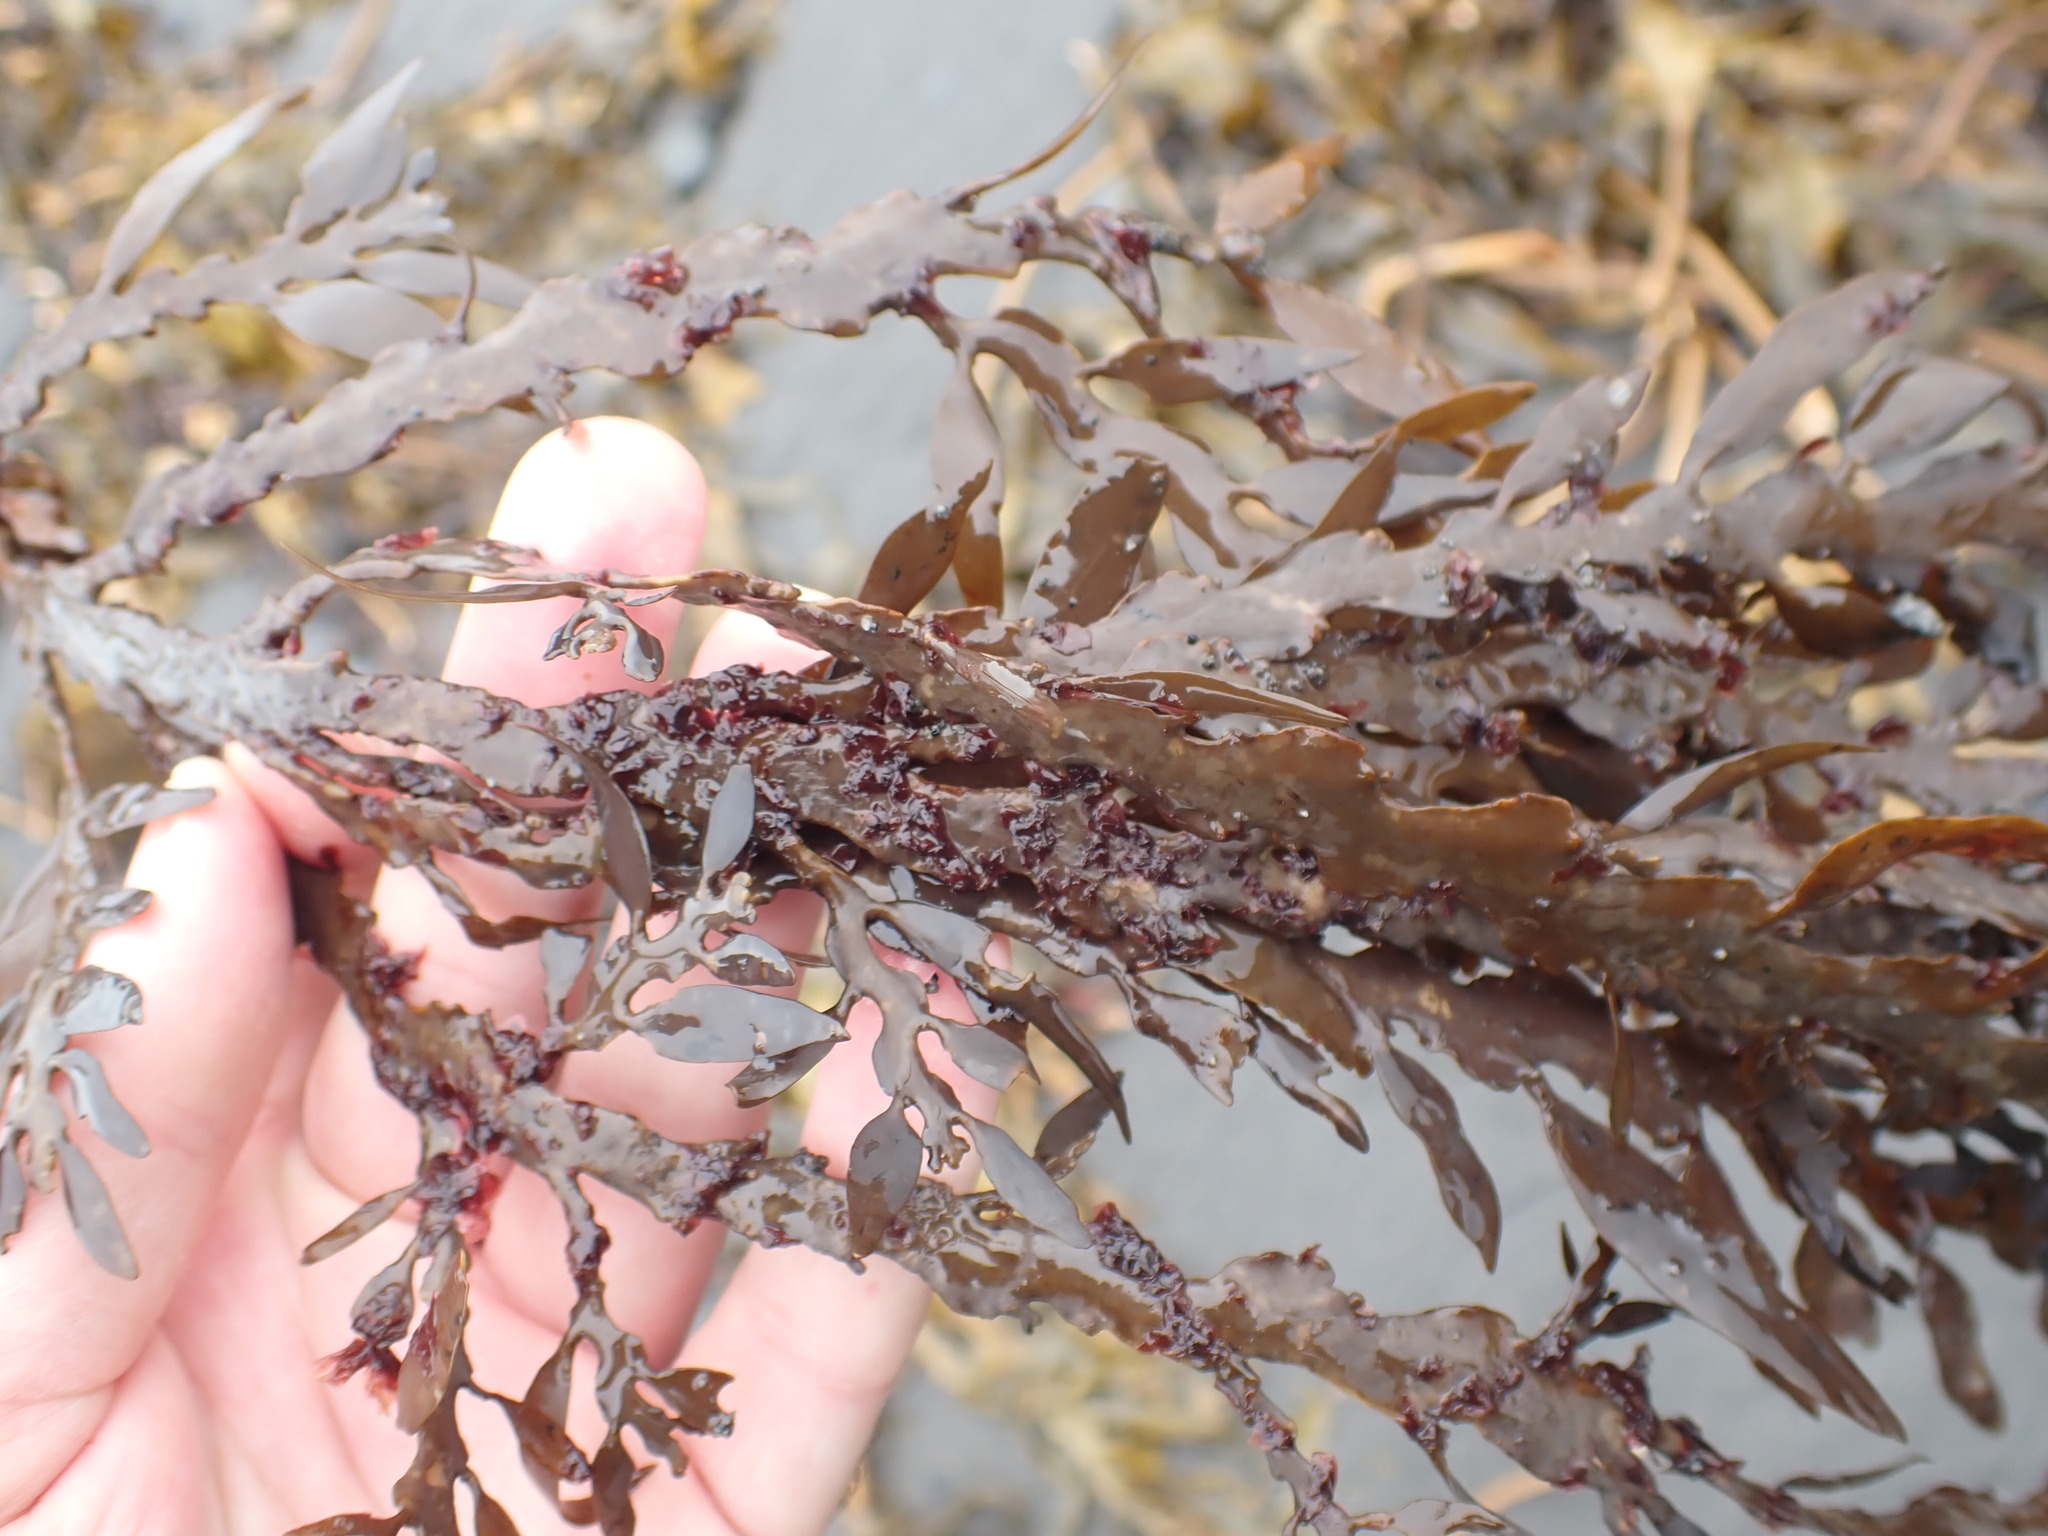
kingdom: Chromista
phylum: Ochrophyta
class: Phaeophyceae
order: Fucales
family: Sargassaceae
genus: Carpophyllum
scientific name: Carpophyllum maschalocarpum
